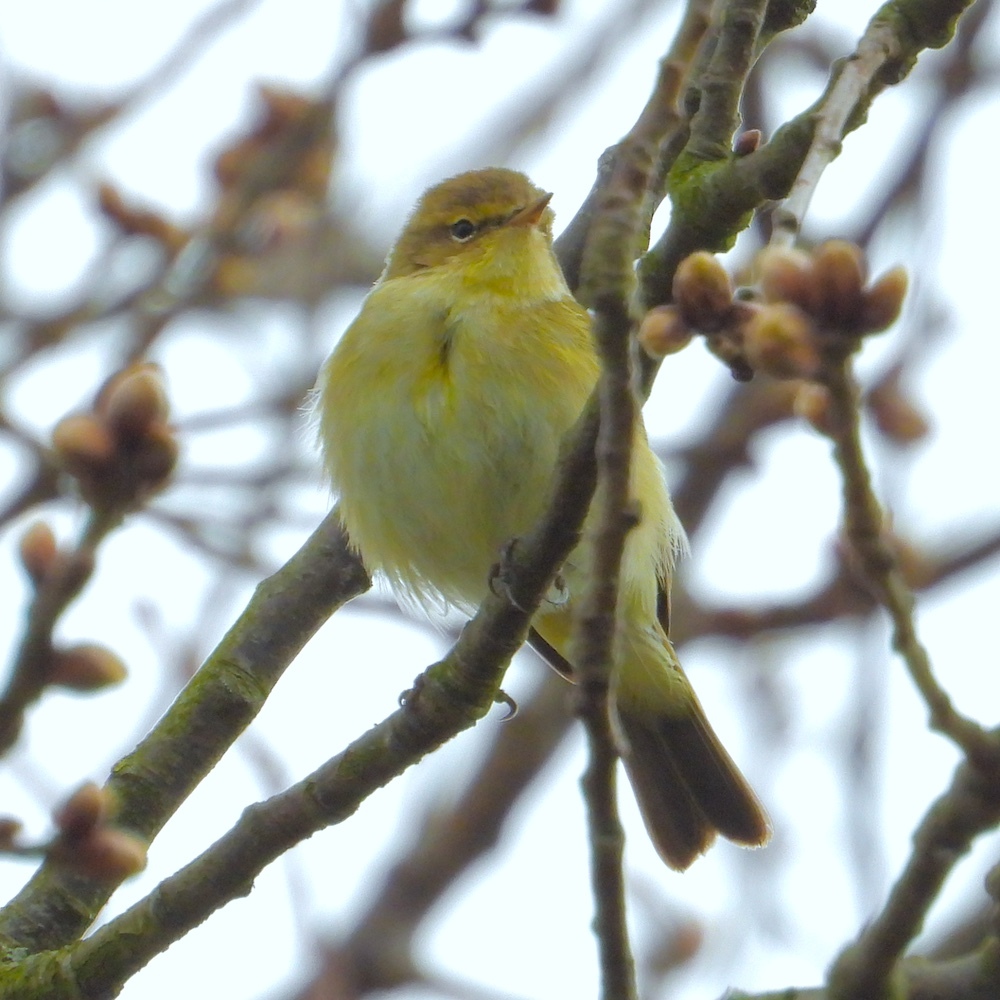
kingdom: Animalia
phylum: Chordata
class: Aves
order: Passeriformes
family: Phylloscopidae
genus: Phylloscopus
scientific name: Phylloscopus collybita
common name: Common chiffchaff
